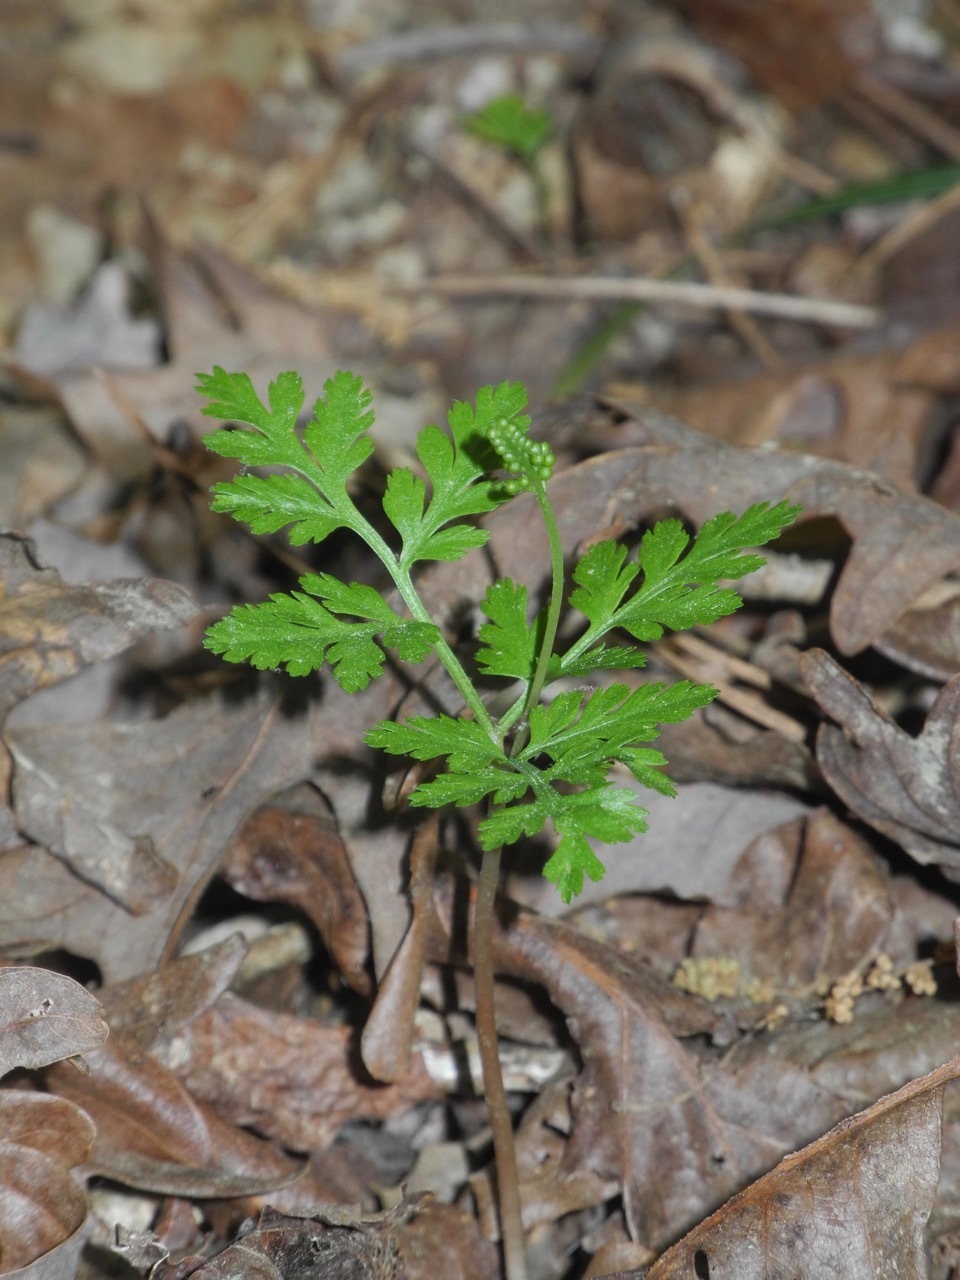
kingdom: Plantae
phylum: Tracheophyta
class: Polypodiopsida
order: Ophioglossales
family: Ophioglossaceae
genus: Botrypus
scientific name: Botrypus virginianus
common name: Common grapefern
